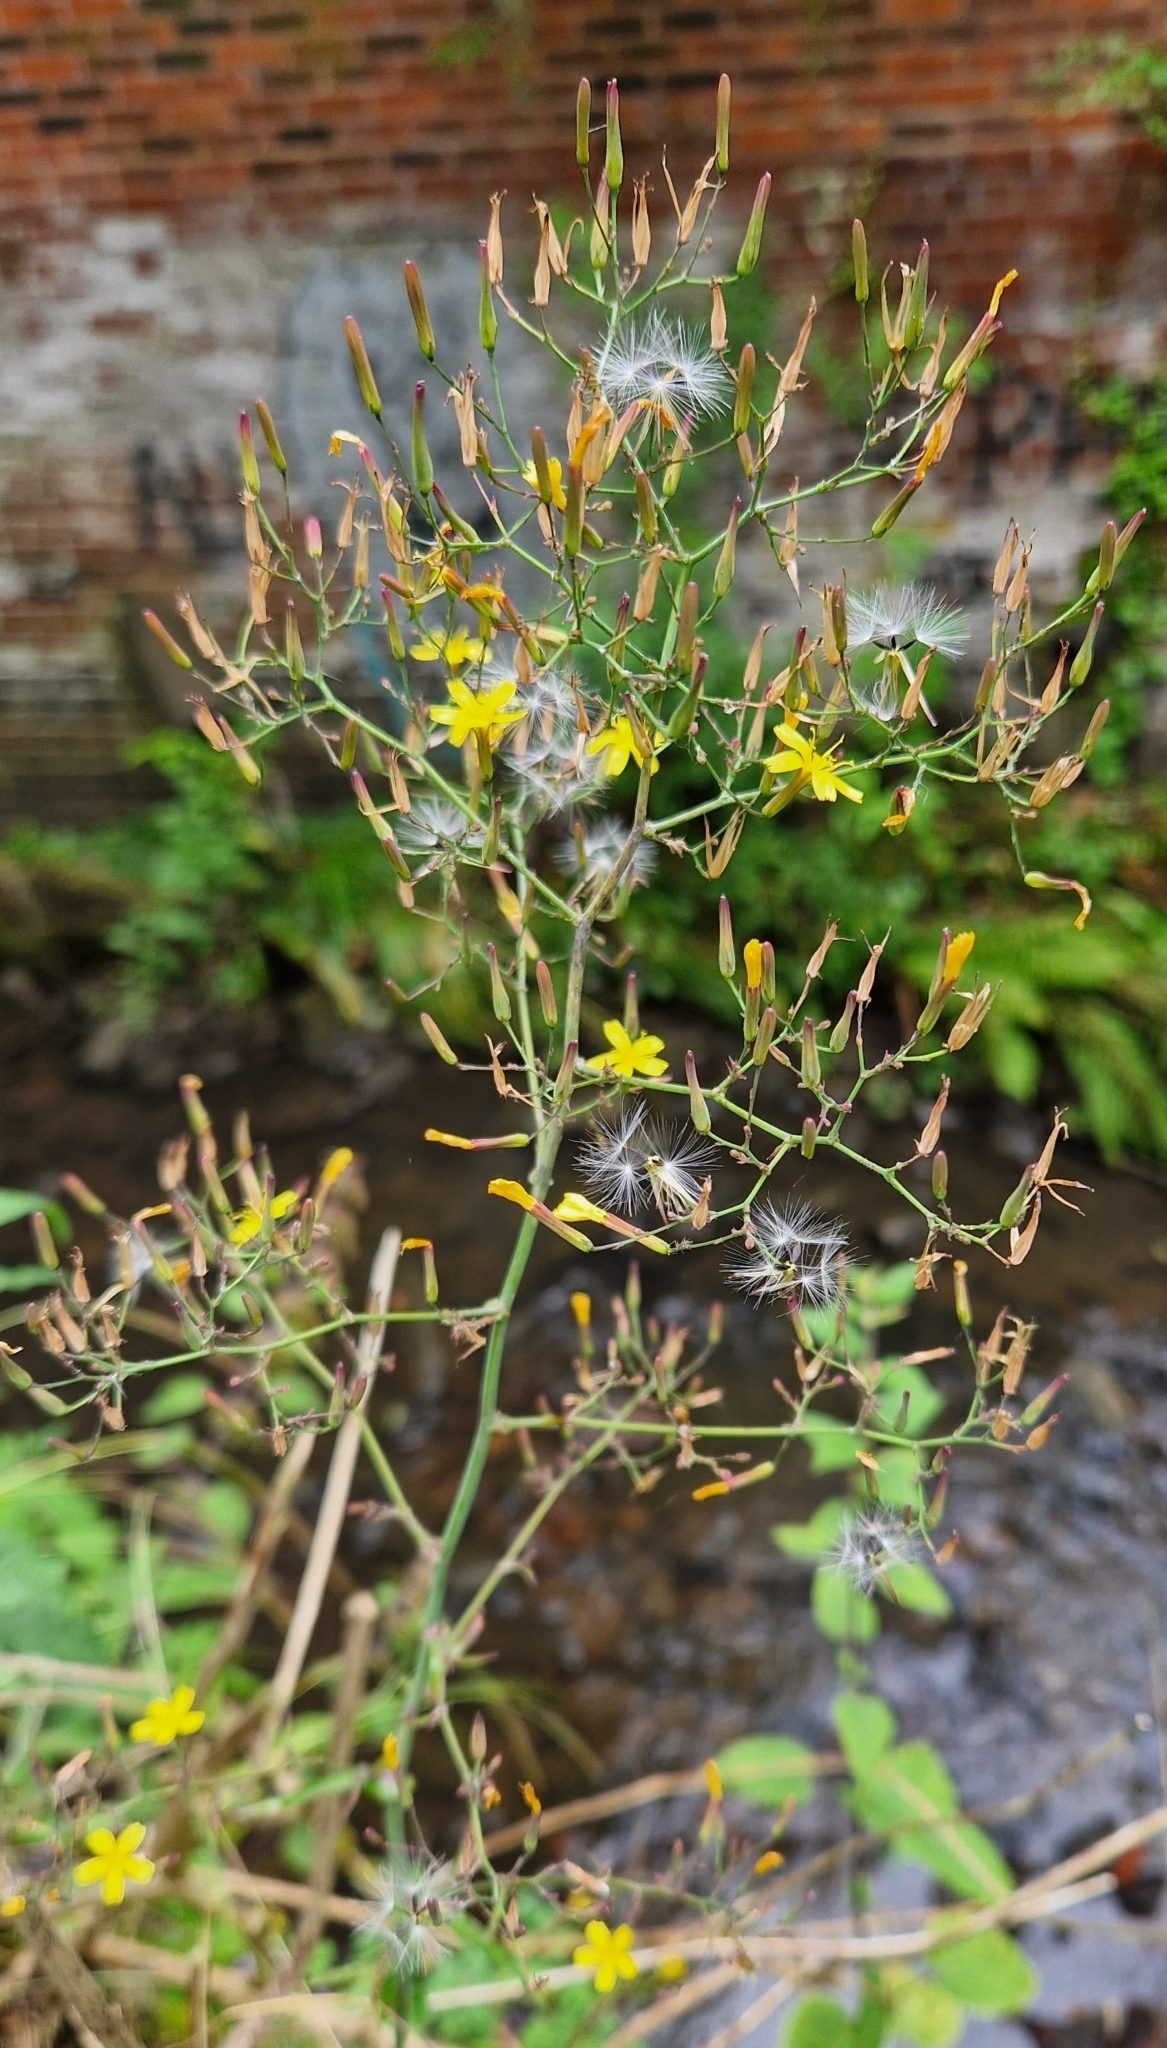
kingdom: Plantae
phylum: Tracheophyta
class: Magnoliopsida
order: Asterales
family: Asteraceae
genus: Mycelis
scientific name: Mycelis muralis
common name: Wall lettuce
